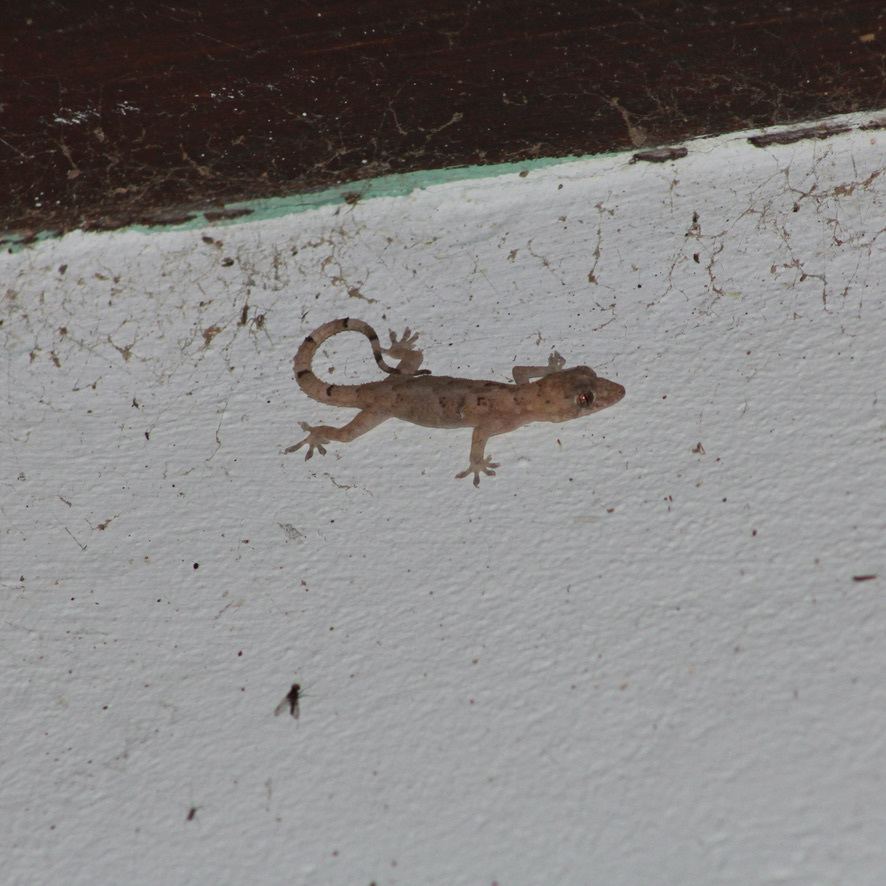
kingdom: Animalia
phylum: Chordata
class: Squamata
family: Gekkonidae
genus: Hemidactylus
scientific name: Hemidactylus mabouia
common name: House gecko
